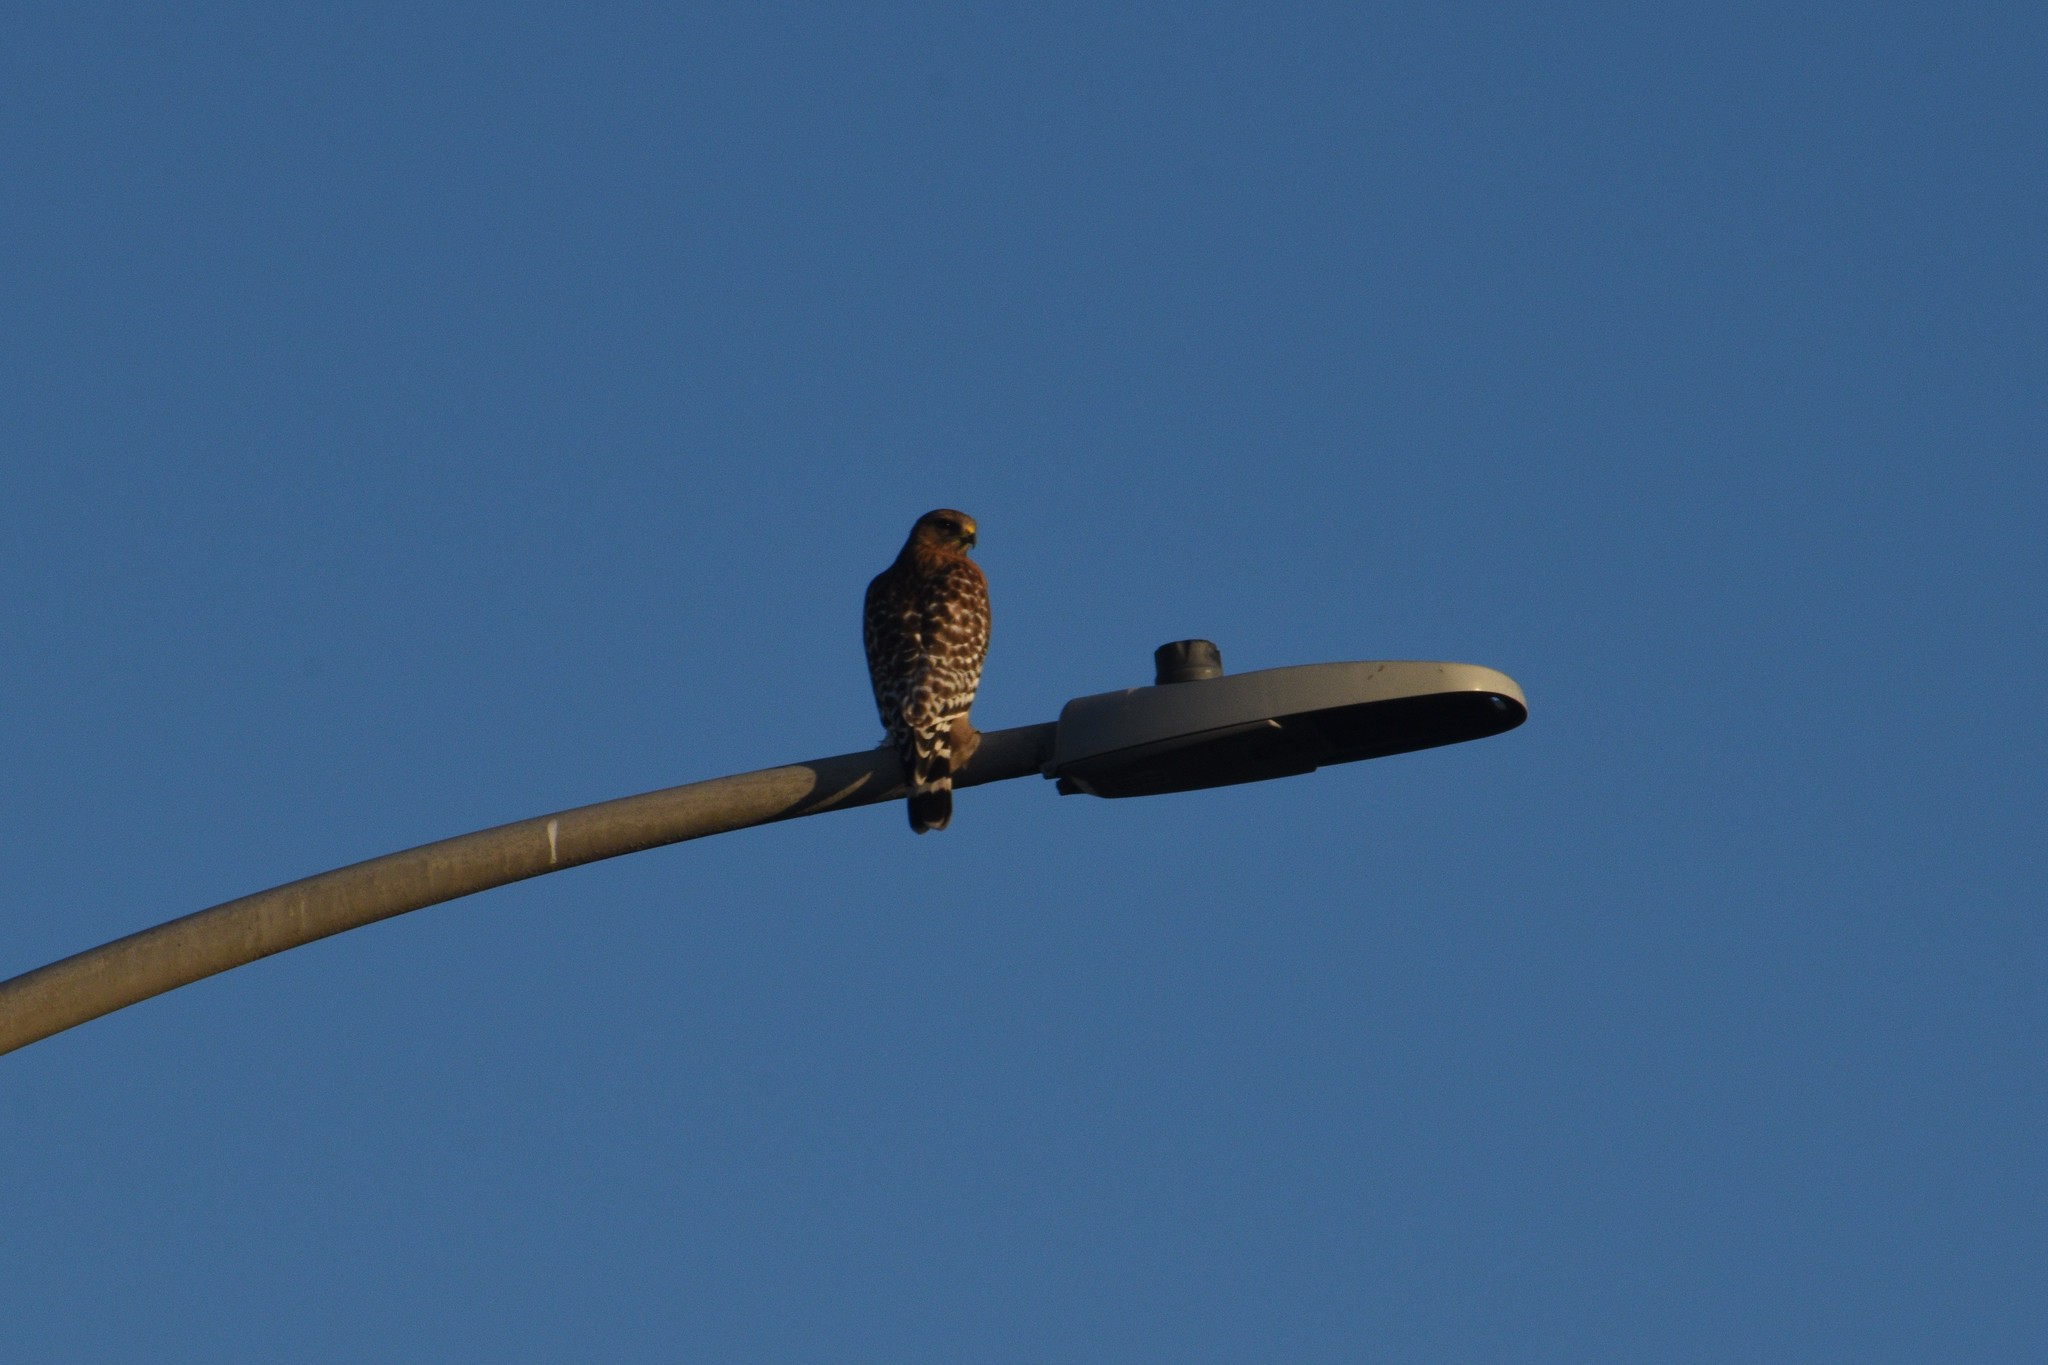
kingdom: Animalia
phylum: Chordata
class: Aves
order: Accipitriformes
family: Accipitridae
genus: Buteo
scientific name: Buteo lineatus
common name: Red-shouldered hawk
